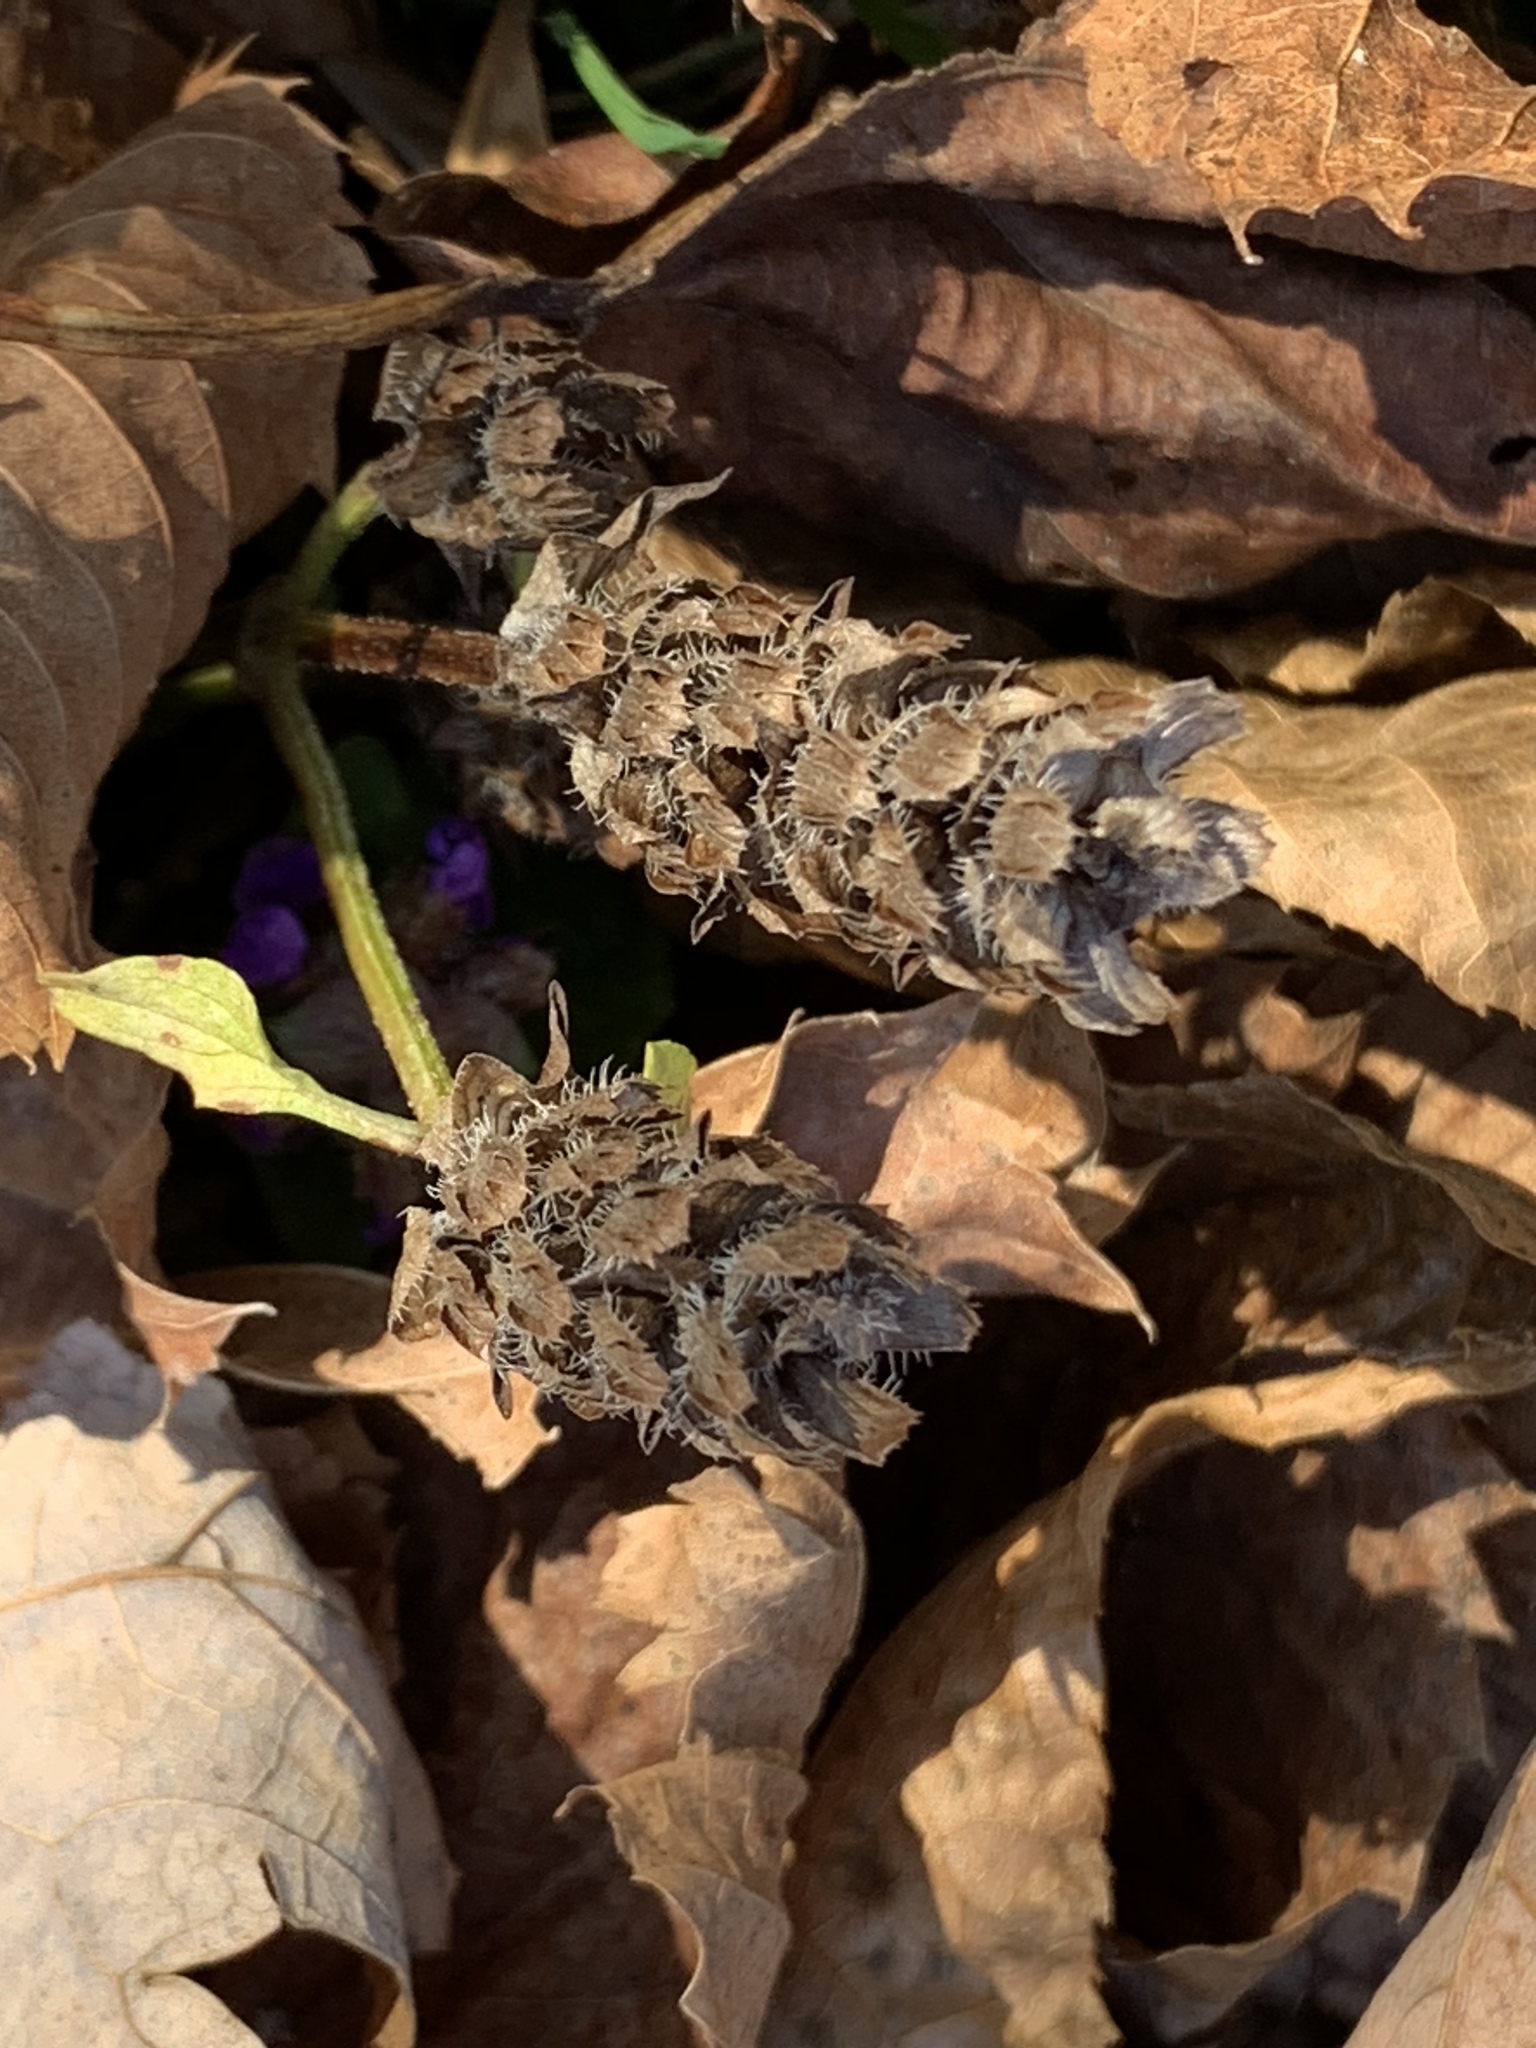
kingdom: Plantae
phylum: Tracheophyta
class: Magnoliopsida
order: Lamiales
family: Lamiaceae
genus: Prunella
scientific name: Prunella vulgaris
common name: Heal-all
